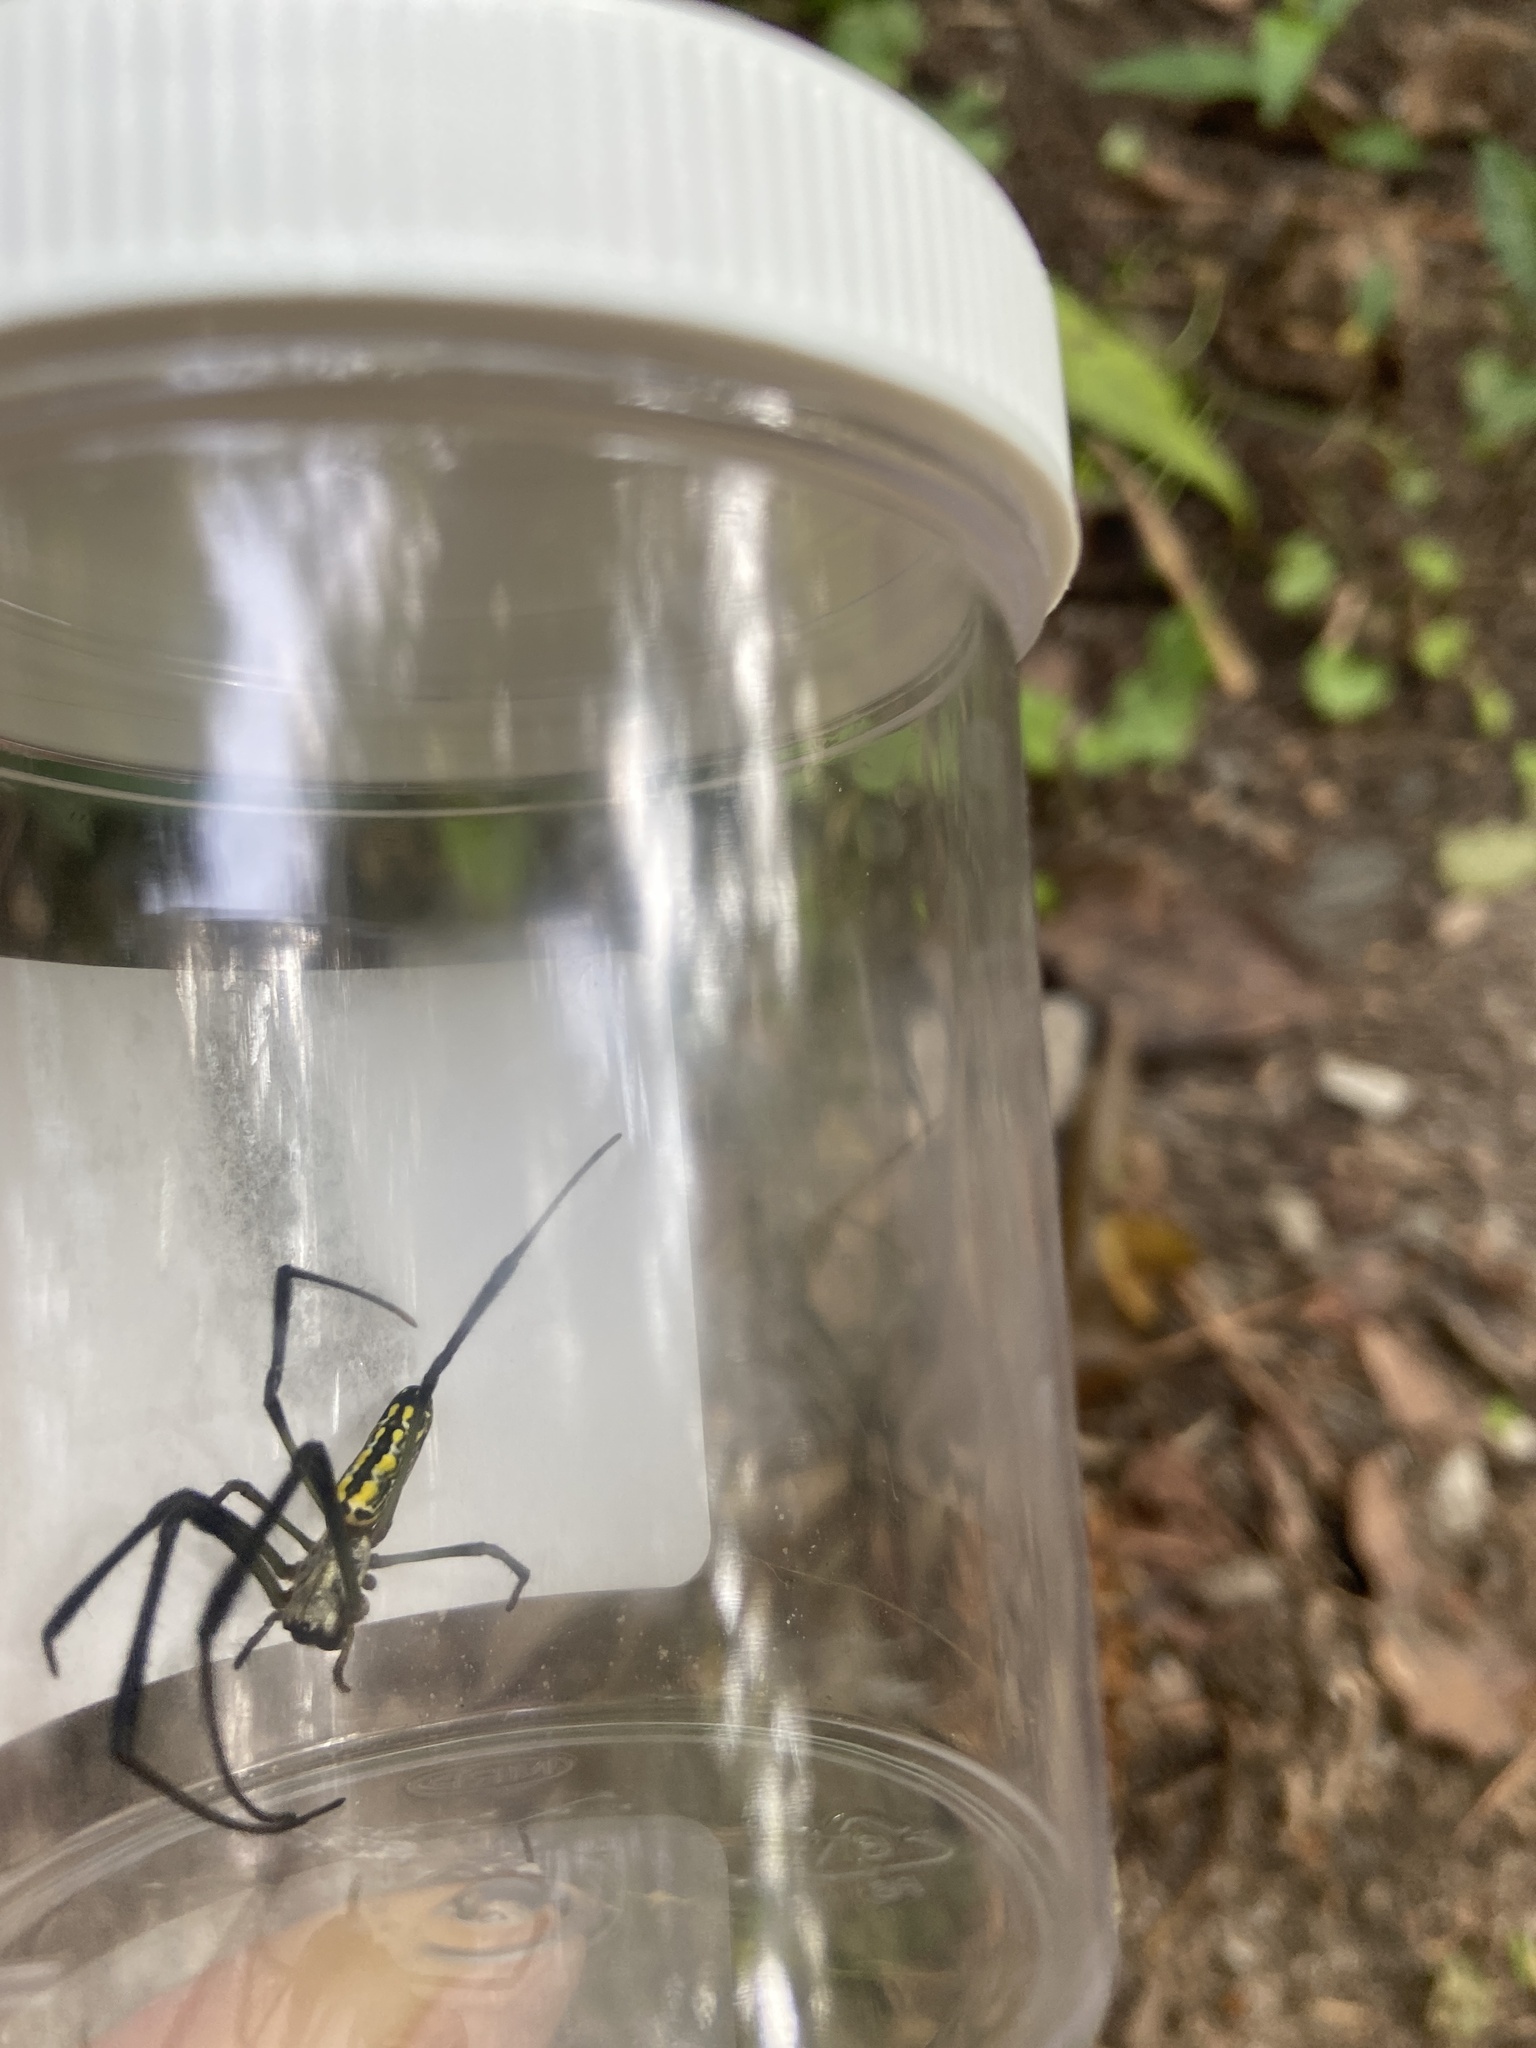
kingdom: Animalia
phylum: Arthropoda
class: Arachnida
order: Araneae
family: Araneidae
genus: Trichonephila
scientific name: Trichonephila clavata
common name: Jorō spider
